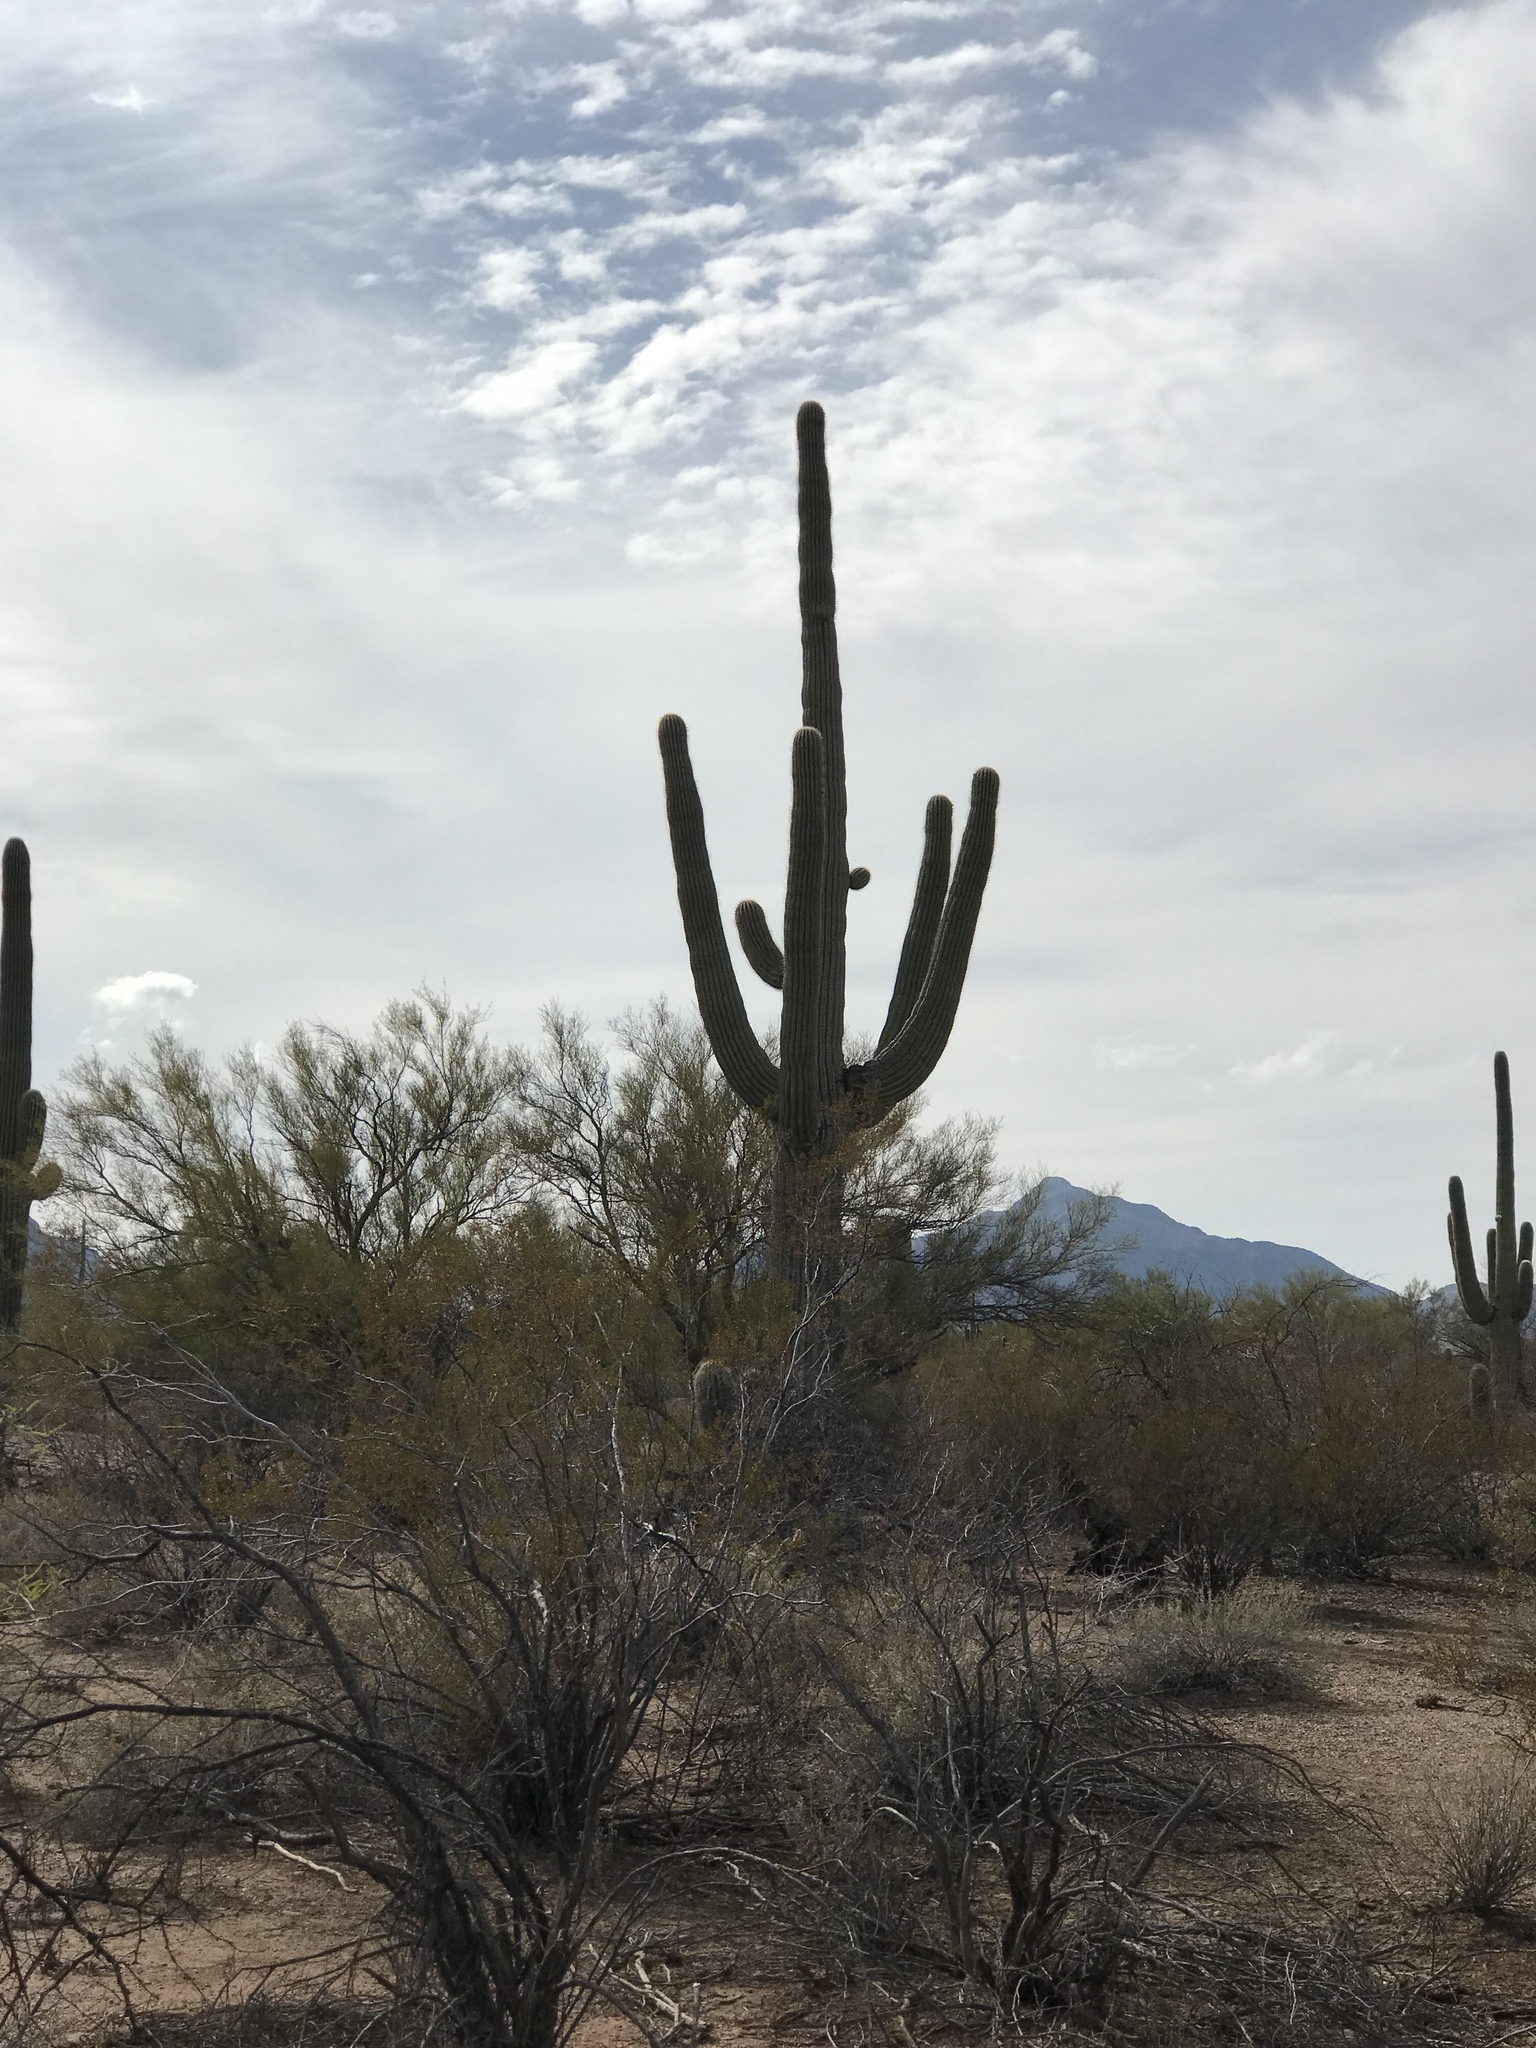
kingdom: Plantae
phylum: Tracheophyta
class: Magnoliopsida
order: Caryophyllales
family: Cactaceae
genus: Carnegiea
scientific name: Carnegiea gigantea
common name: Saguaro
